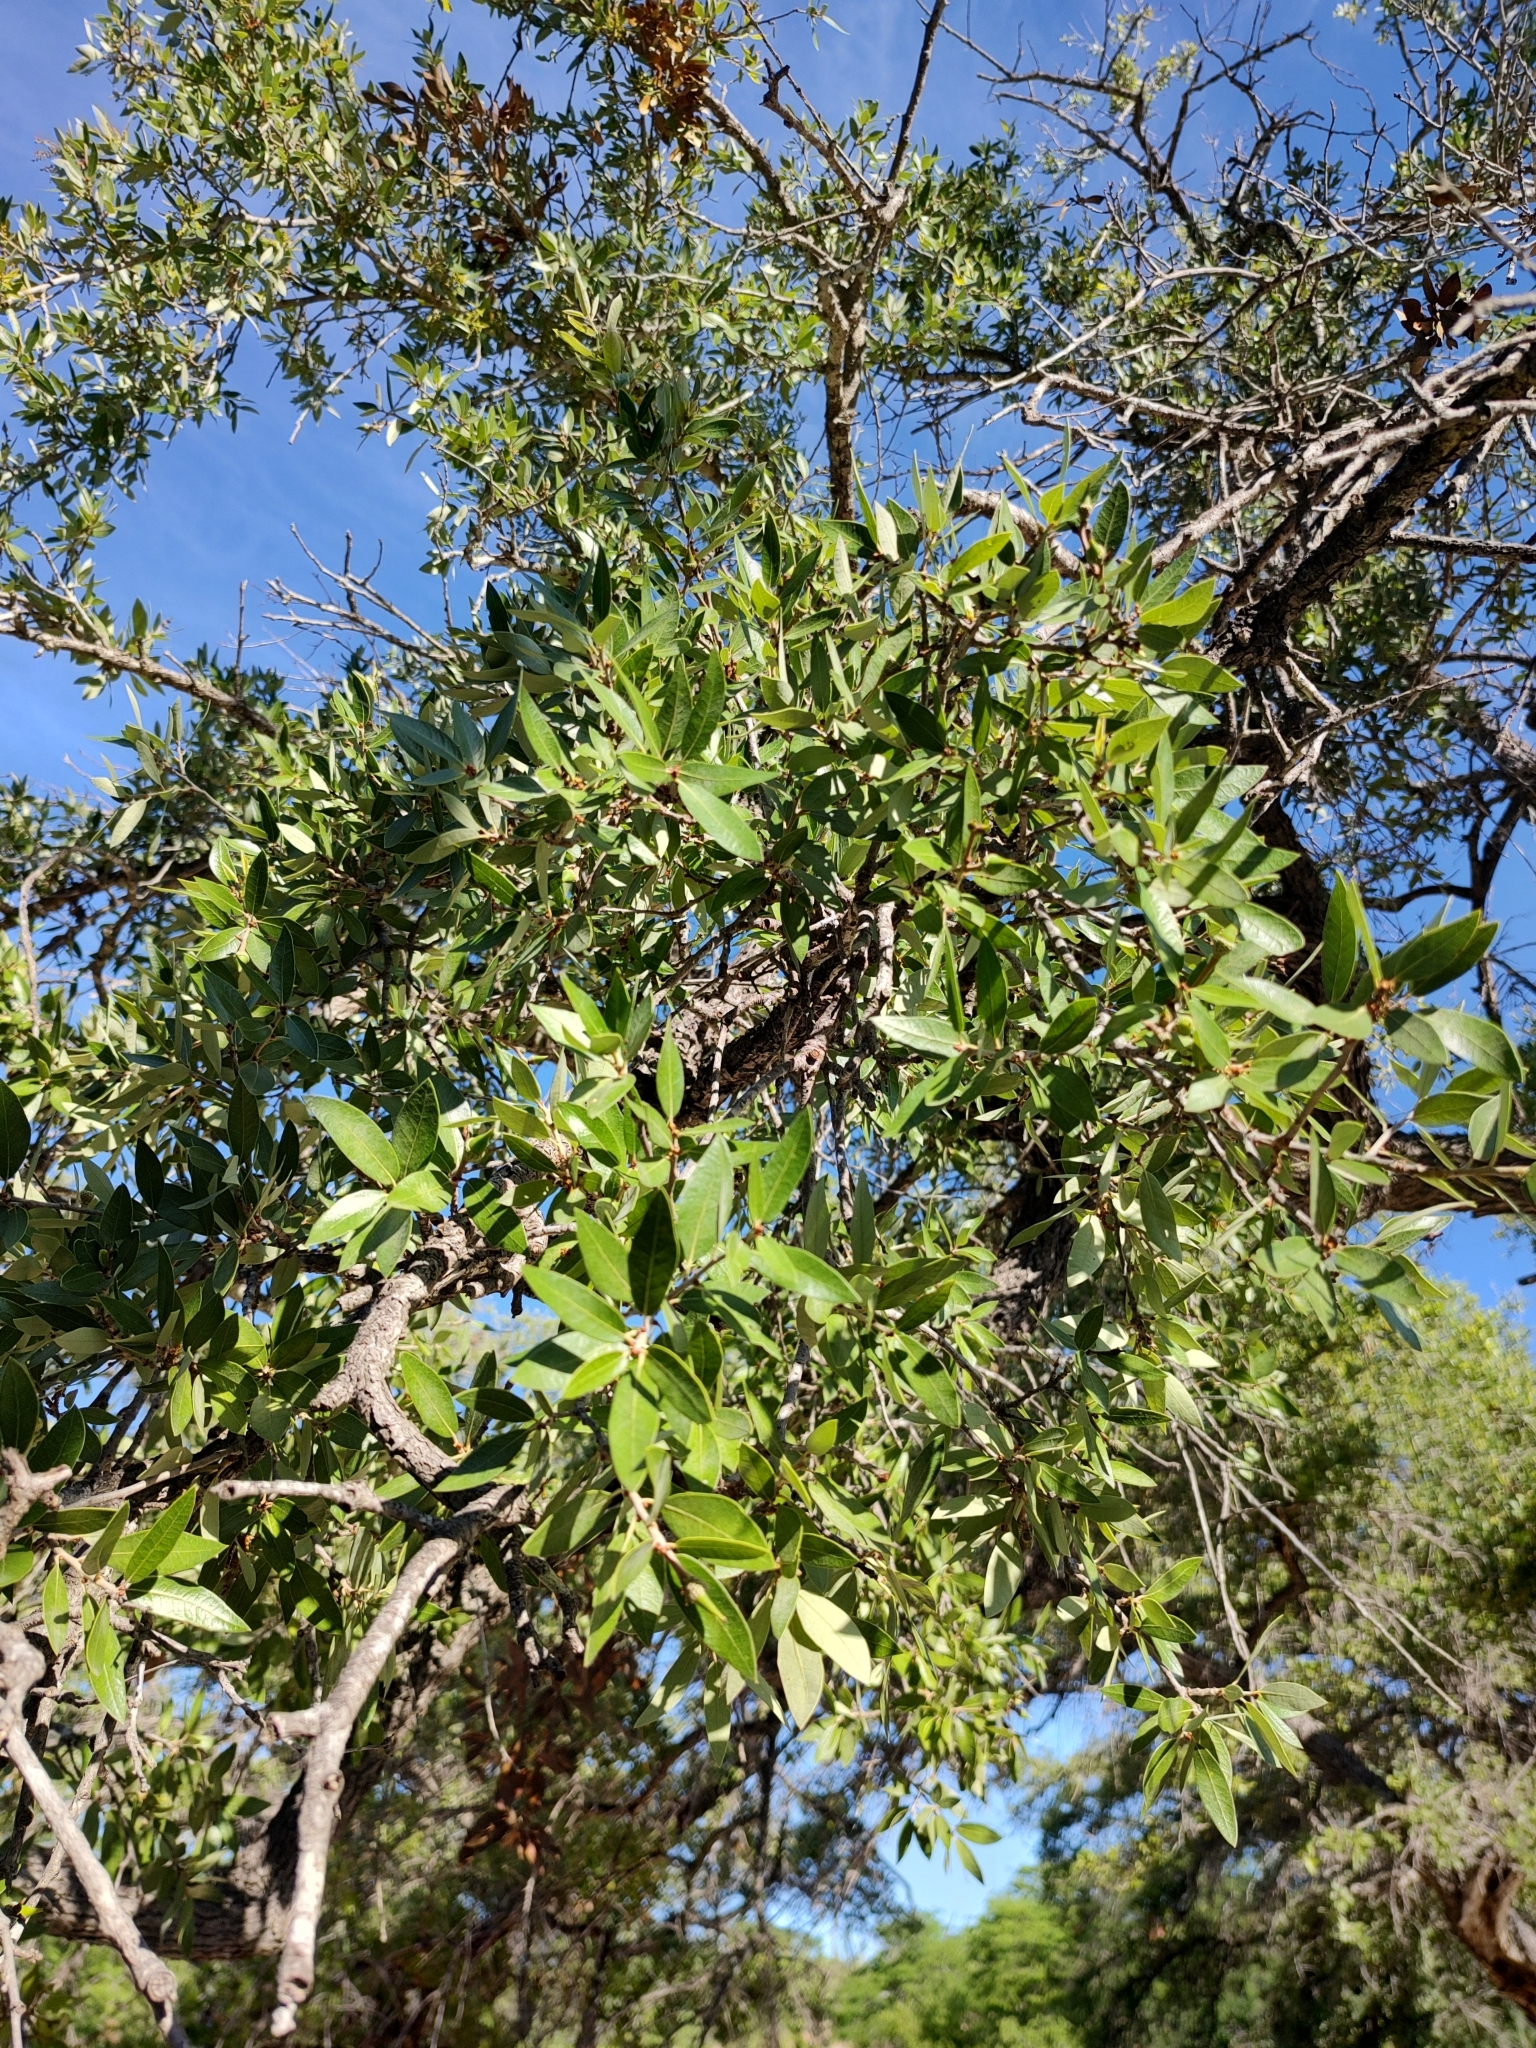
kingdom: Plantae
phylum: Tracheophyta
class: Magnoliopsida
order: Fagales
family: Fagaceae
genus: Quercus
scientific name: Quercus brandegeei
